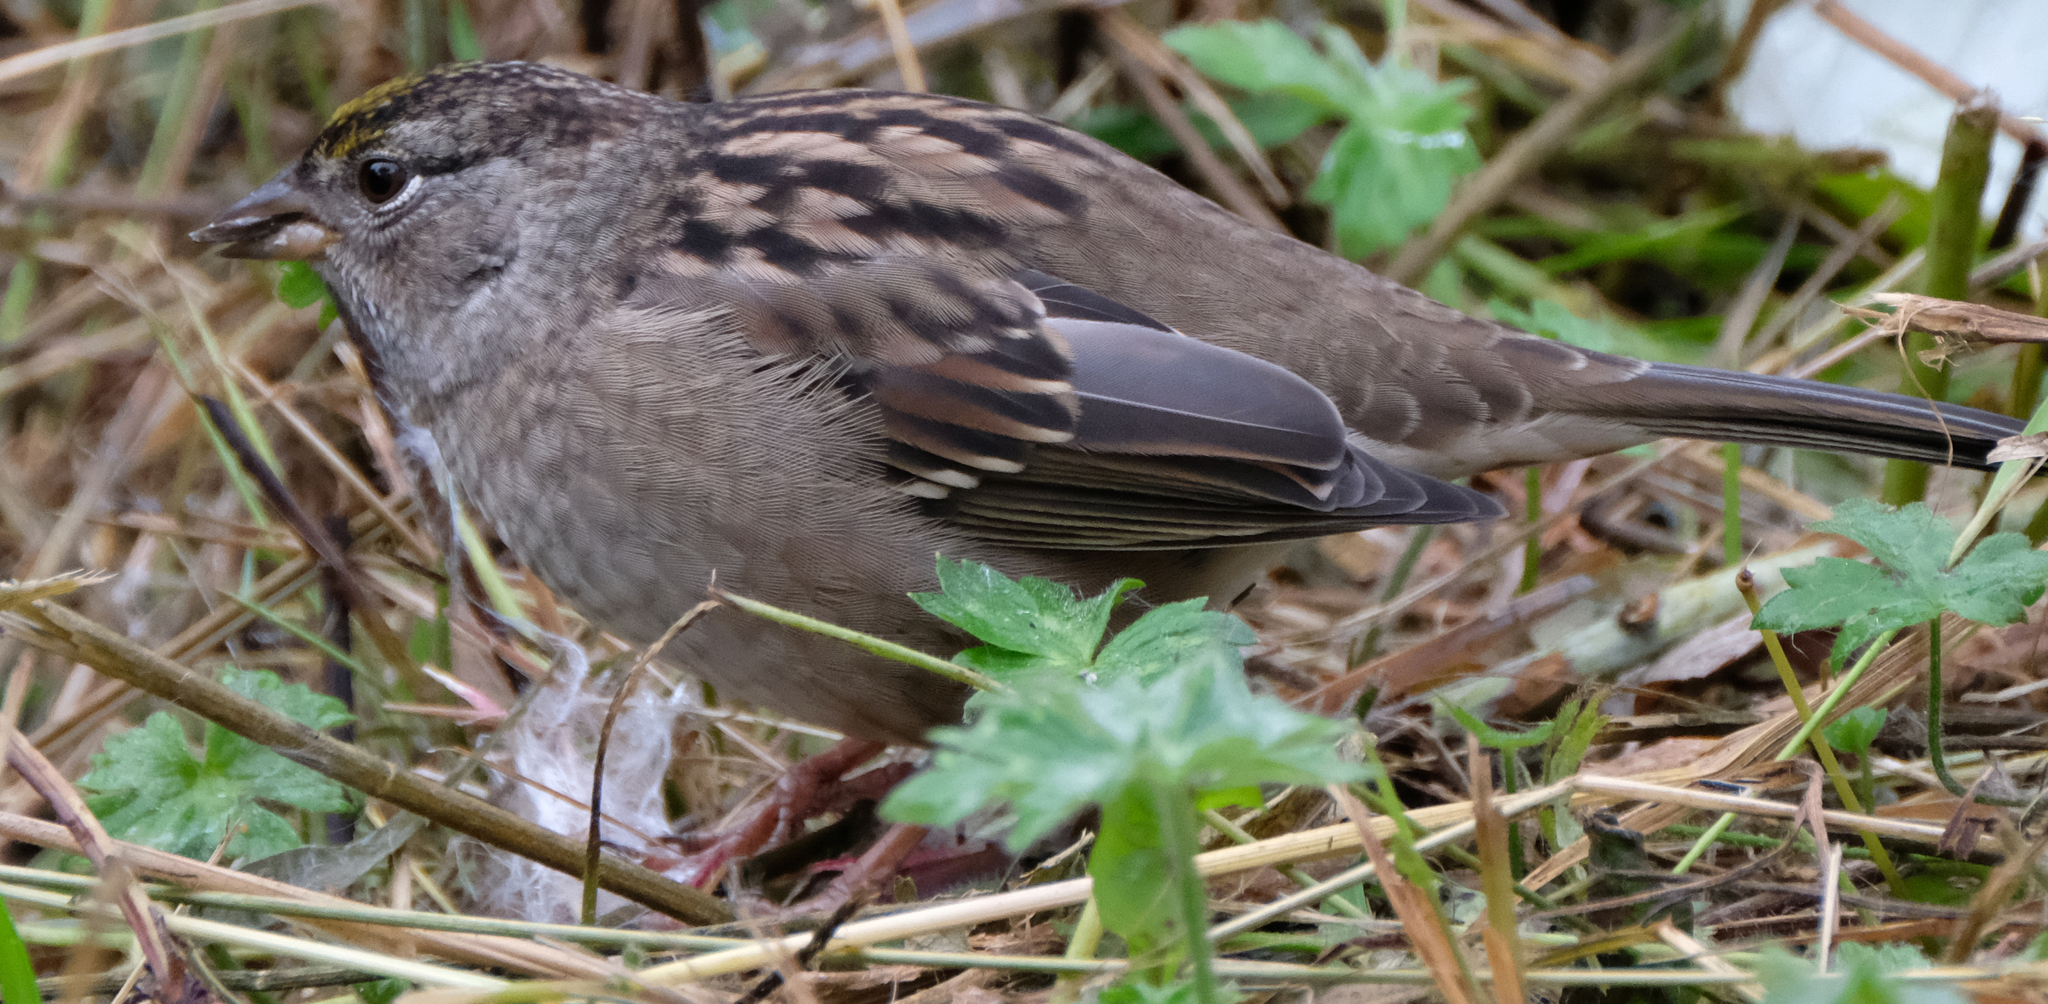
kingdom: Animalia
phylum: Chordata
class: Aves
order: Passeriformes
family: Passerellidae
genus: Zonotrichia
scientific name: Zonotrichia atricapilla
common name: Golden-crowned sparrow
